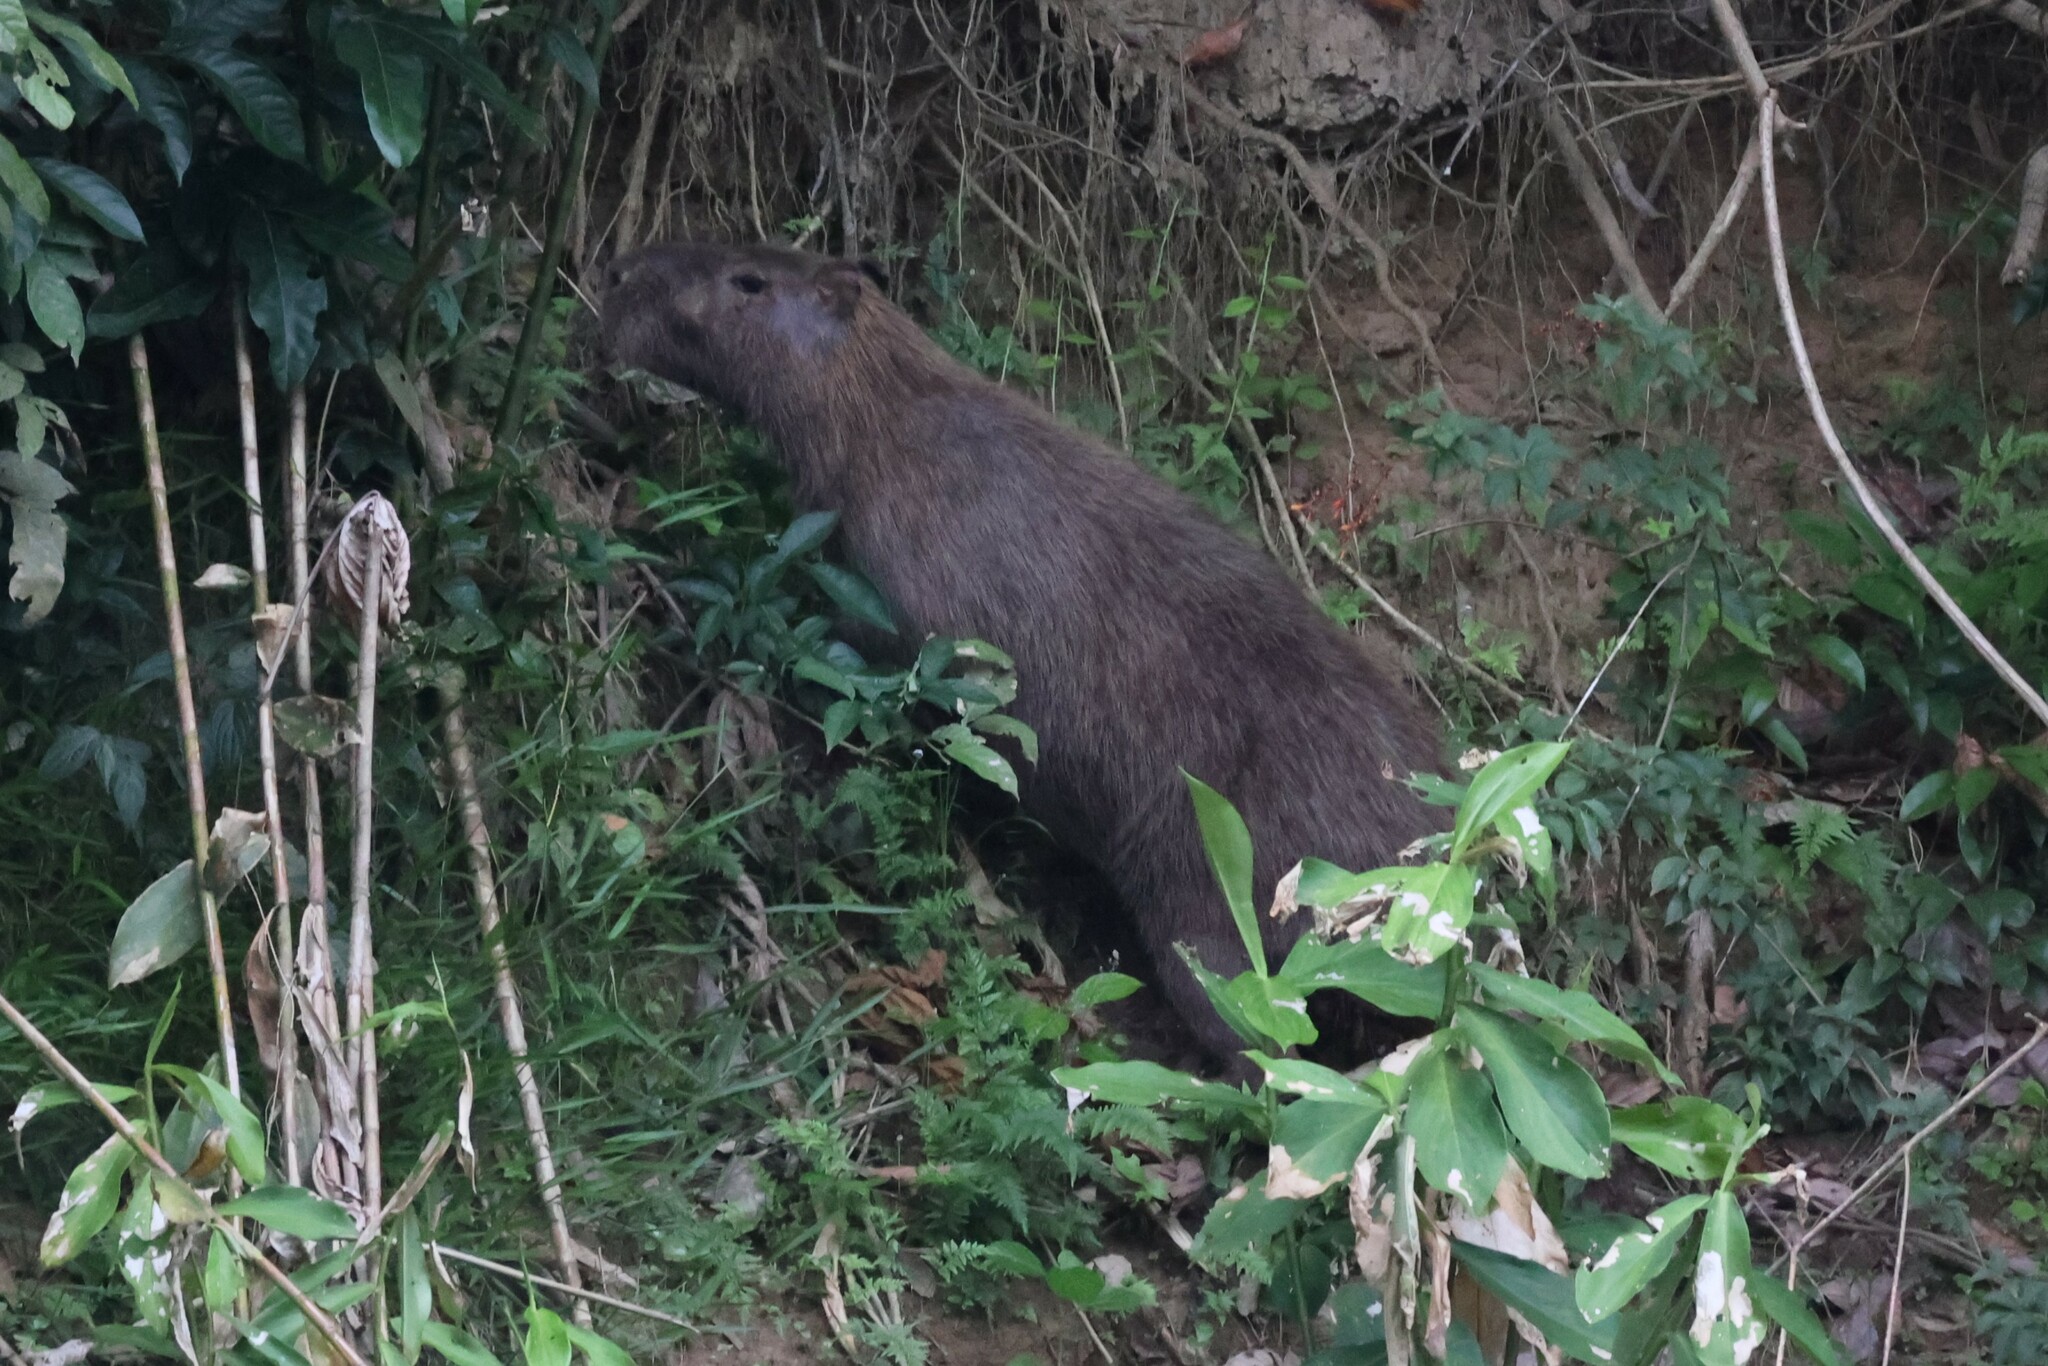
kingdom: Animalia
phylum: Chordata
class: Mammalia
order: Rodentia
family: Caviidae
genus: Hydrochoerus
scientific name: Hydrochoerus hydrochaeris
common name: Capybara
